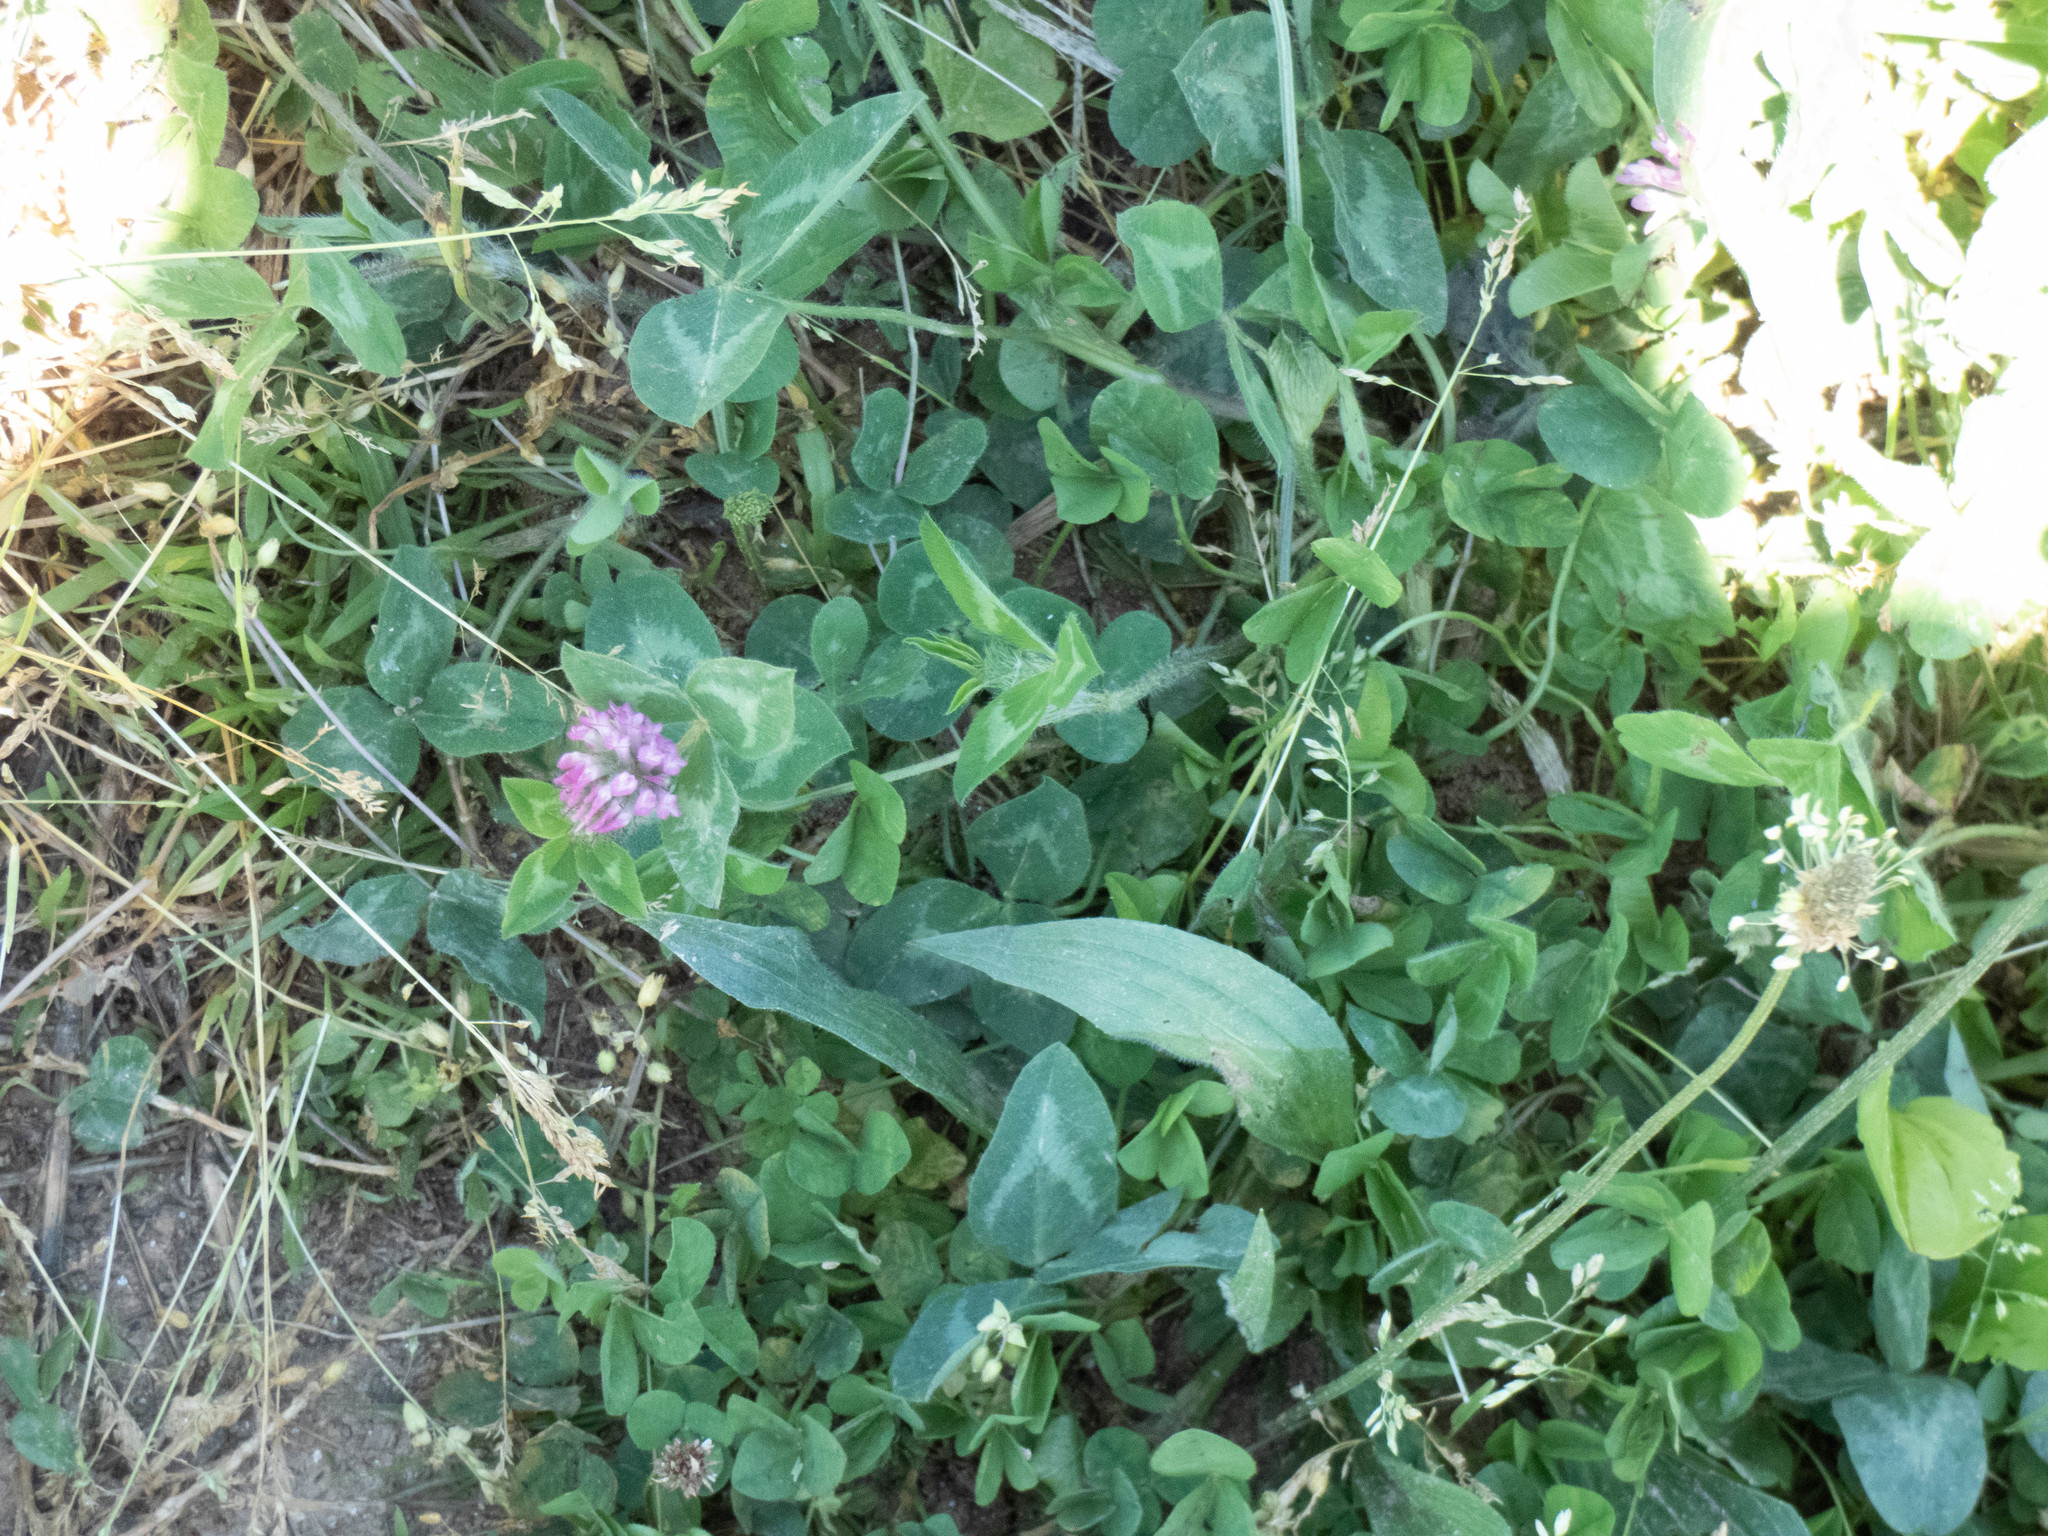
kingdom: Plantae
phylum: Tracheophyta
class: Magnoliopsida
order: Fabales
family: Fabaceae
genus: Trifolium
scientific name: Trifolium pratense
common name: Red clover
